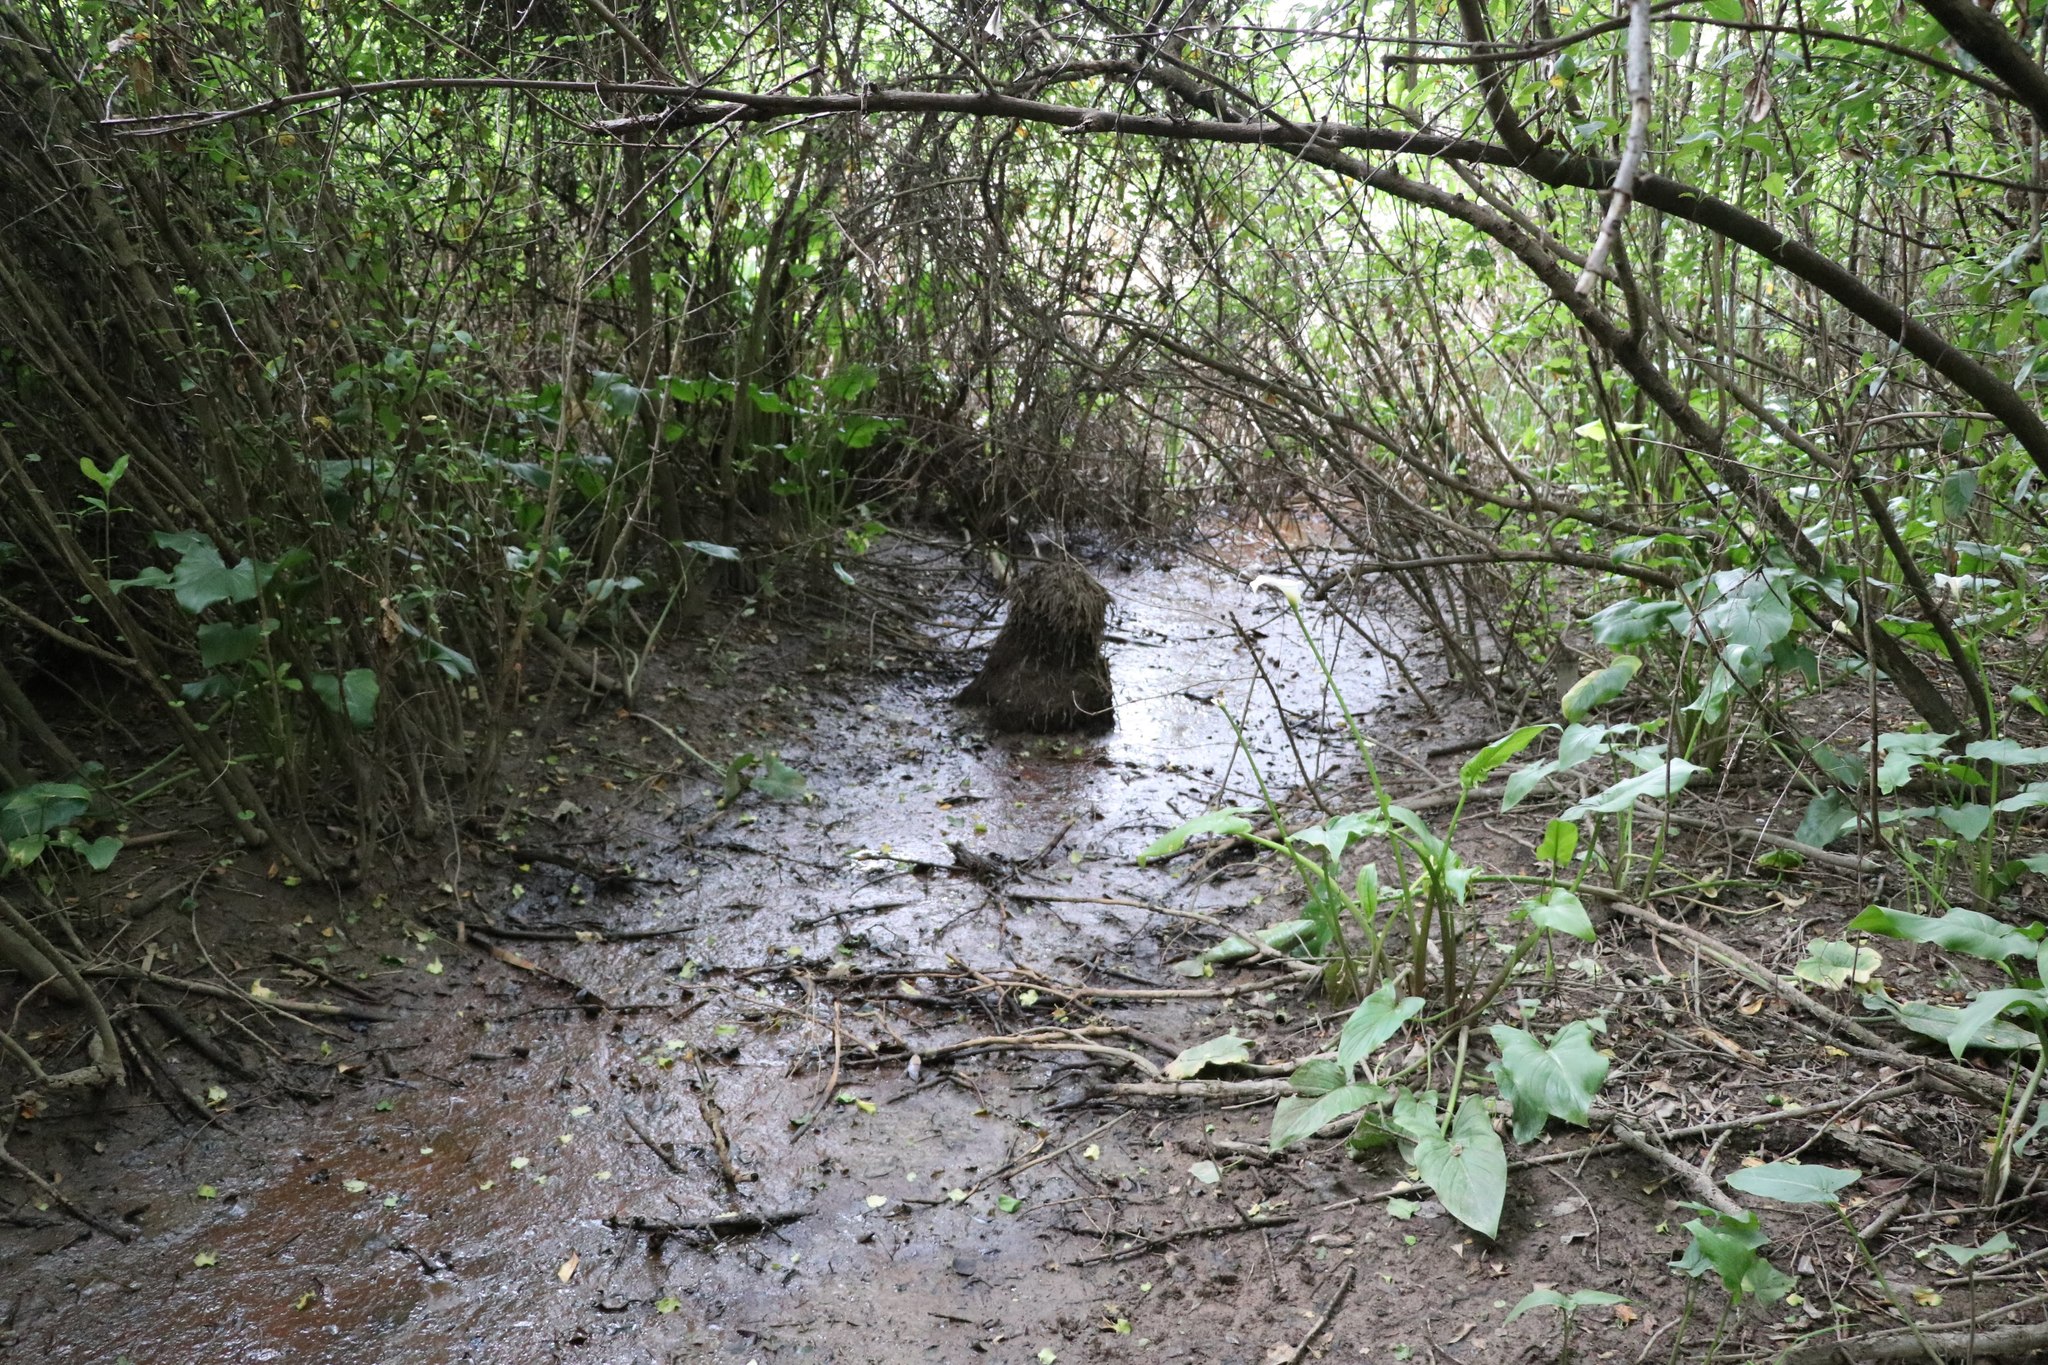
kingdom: Plantae
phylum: Tracheophyta
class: Liliopsida
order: Poales
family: Cyperaceae
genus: Carex
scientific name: Carex secta
